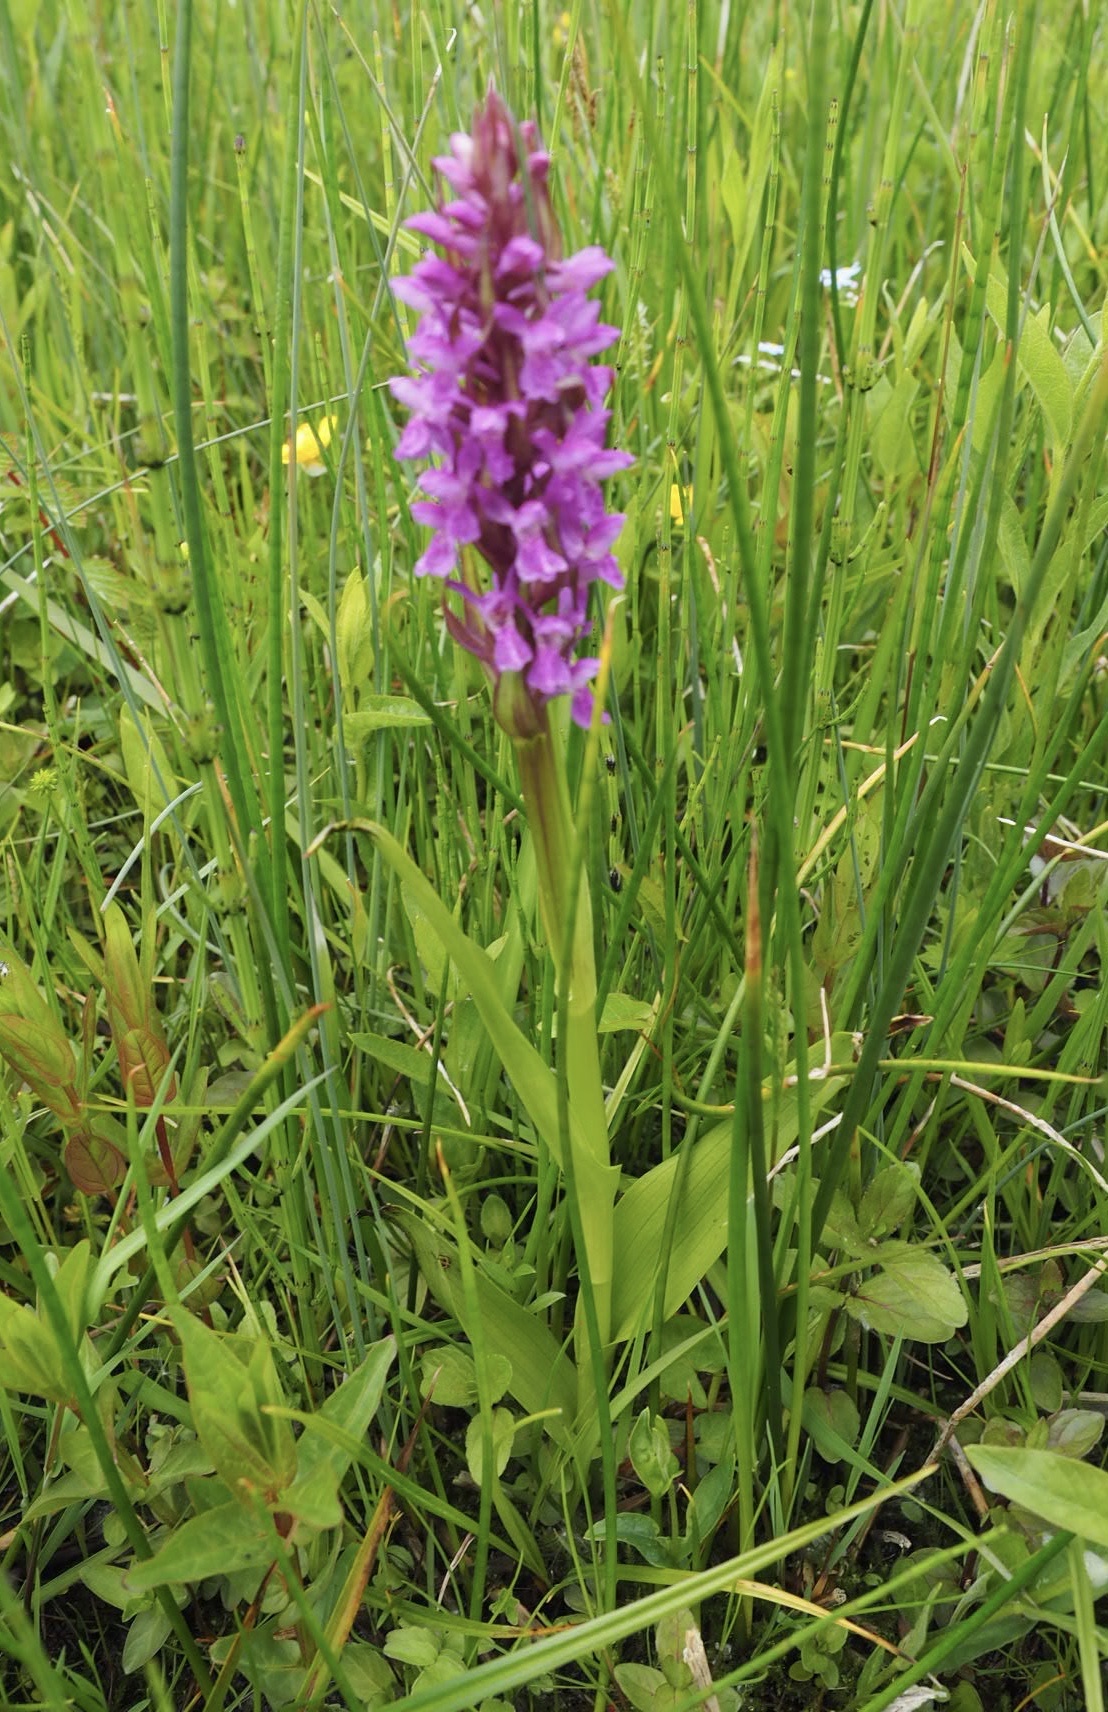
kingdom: Plantae
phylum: Tracheophyta
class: Liliopsida
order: Asparagales
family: Orchidaceae
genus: Dactylorhiza
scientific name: Dactylorhiza majalis
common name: Marsh orchid
